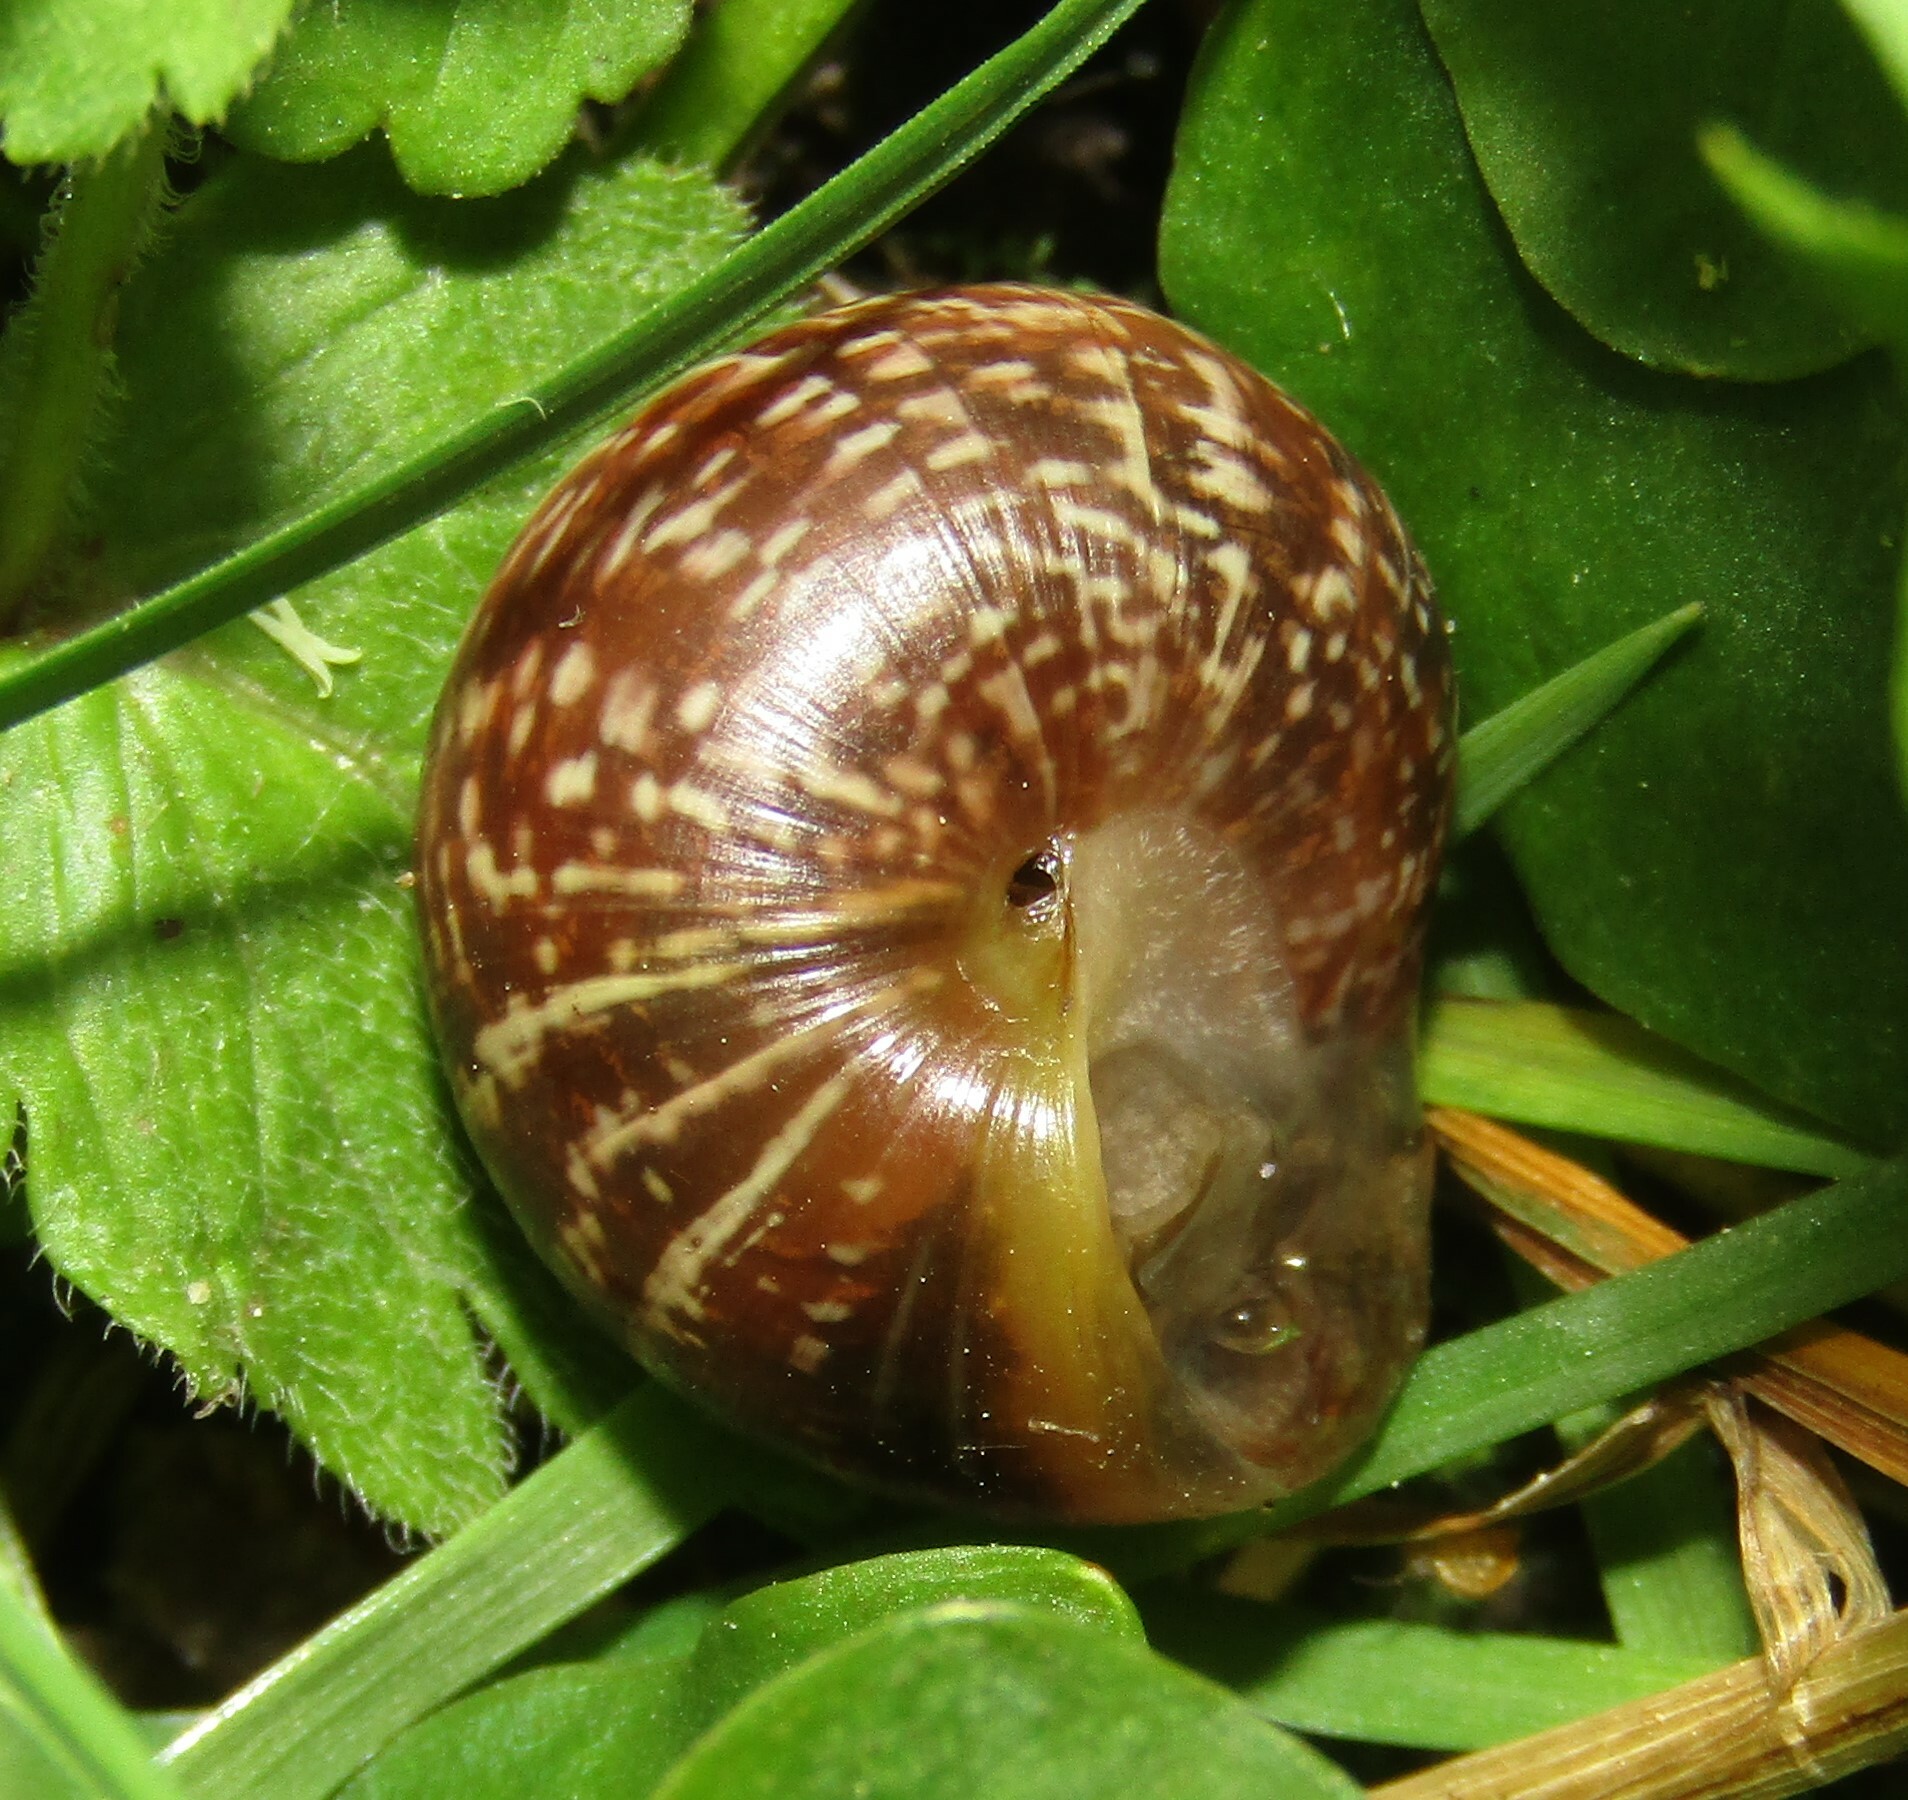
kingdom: Animalia
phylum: Mollusca
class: Gastropoda
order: Stylommatophora
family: Helicidae
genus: Arianta
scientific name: Arianta arbustorum
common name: Copse snail
